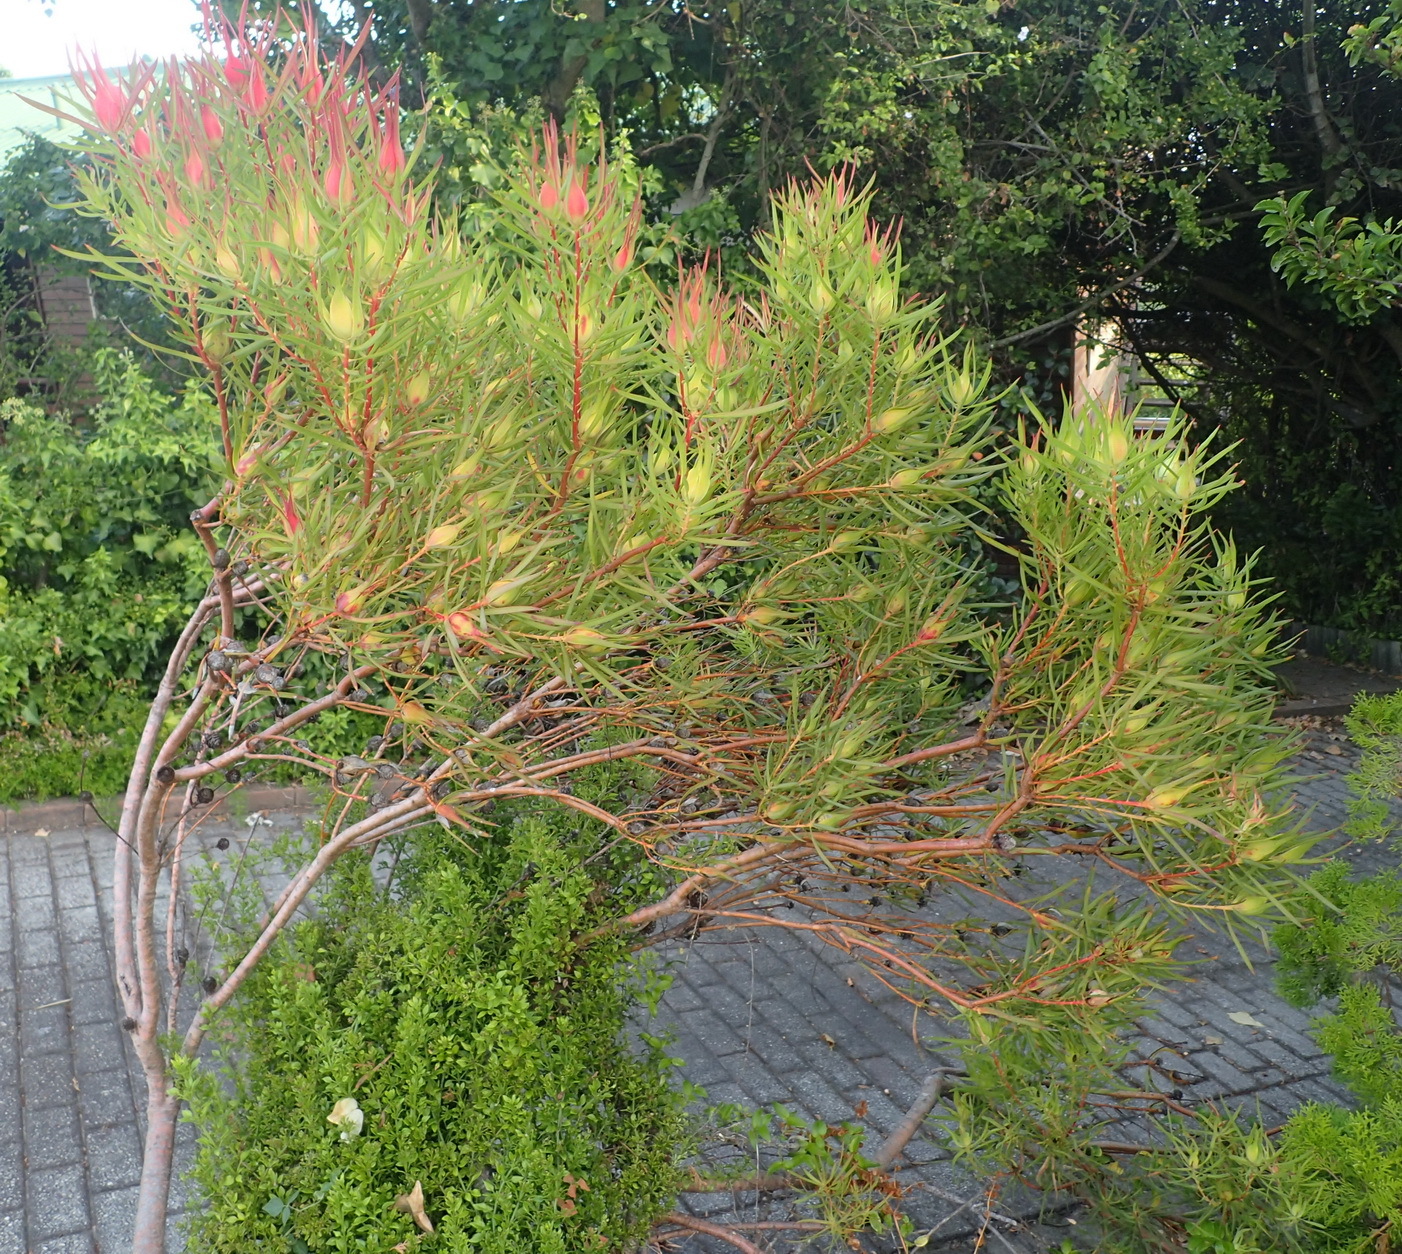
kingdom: Plantae
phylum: Tracheophyta
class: Magnoliopsida
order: Proteales
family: Proteaceae
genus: Leucadendron
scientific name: Leucadendron salignum
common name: Common sunshine conebush
